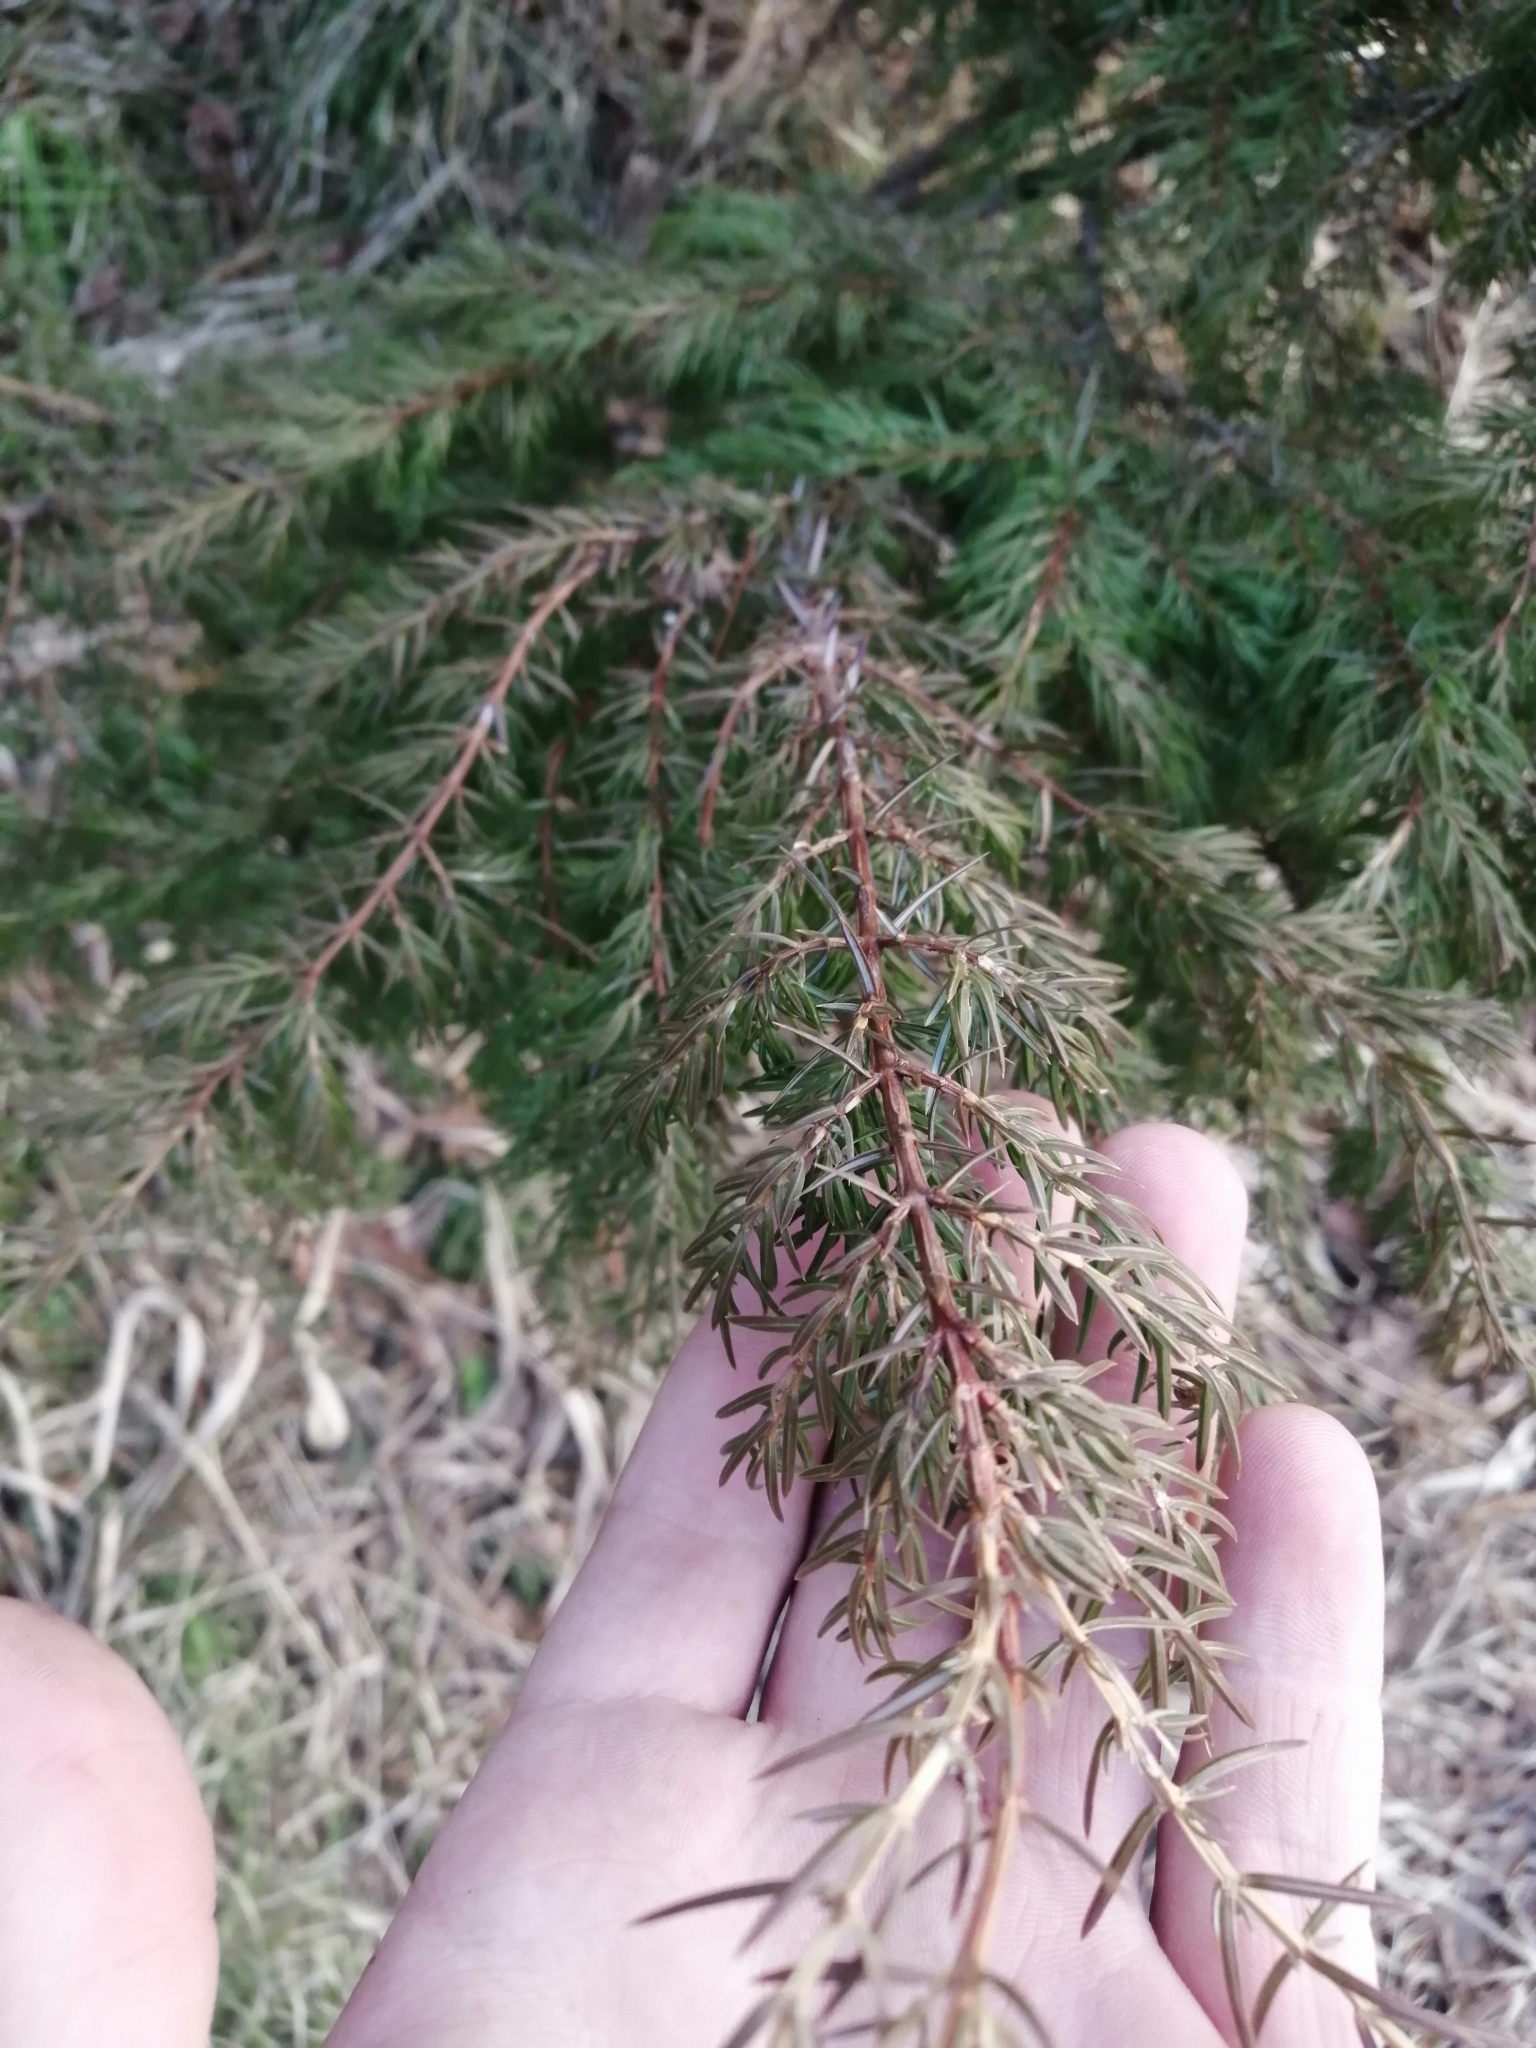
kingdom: Plantae
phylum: Tracheophyta
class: Pinopsida
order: Pinales
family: Cupressaceae
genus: Juniperus
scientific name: Juniperus communis
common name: Common juniper
